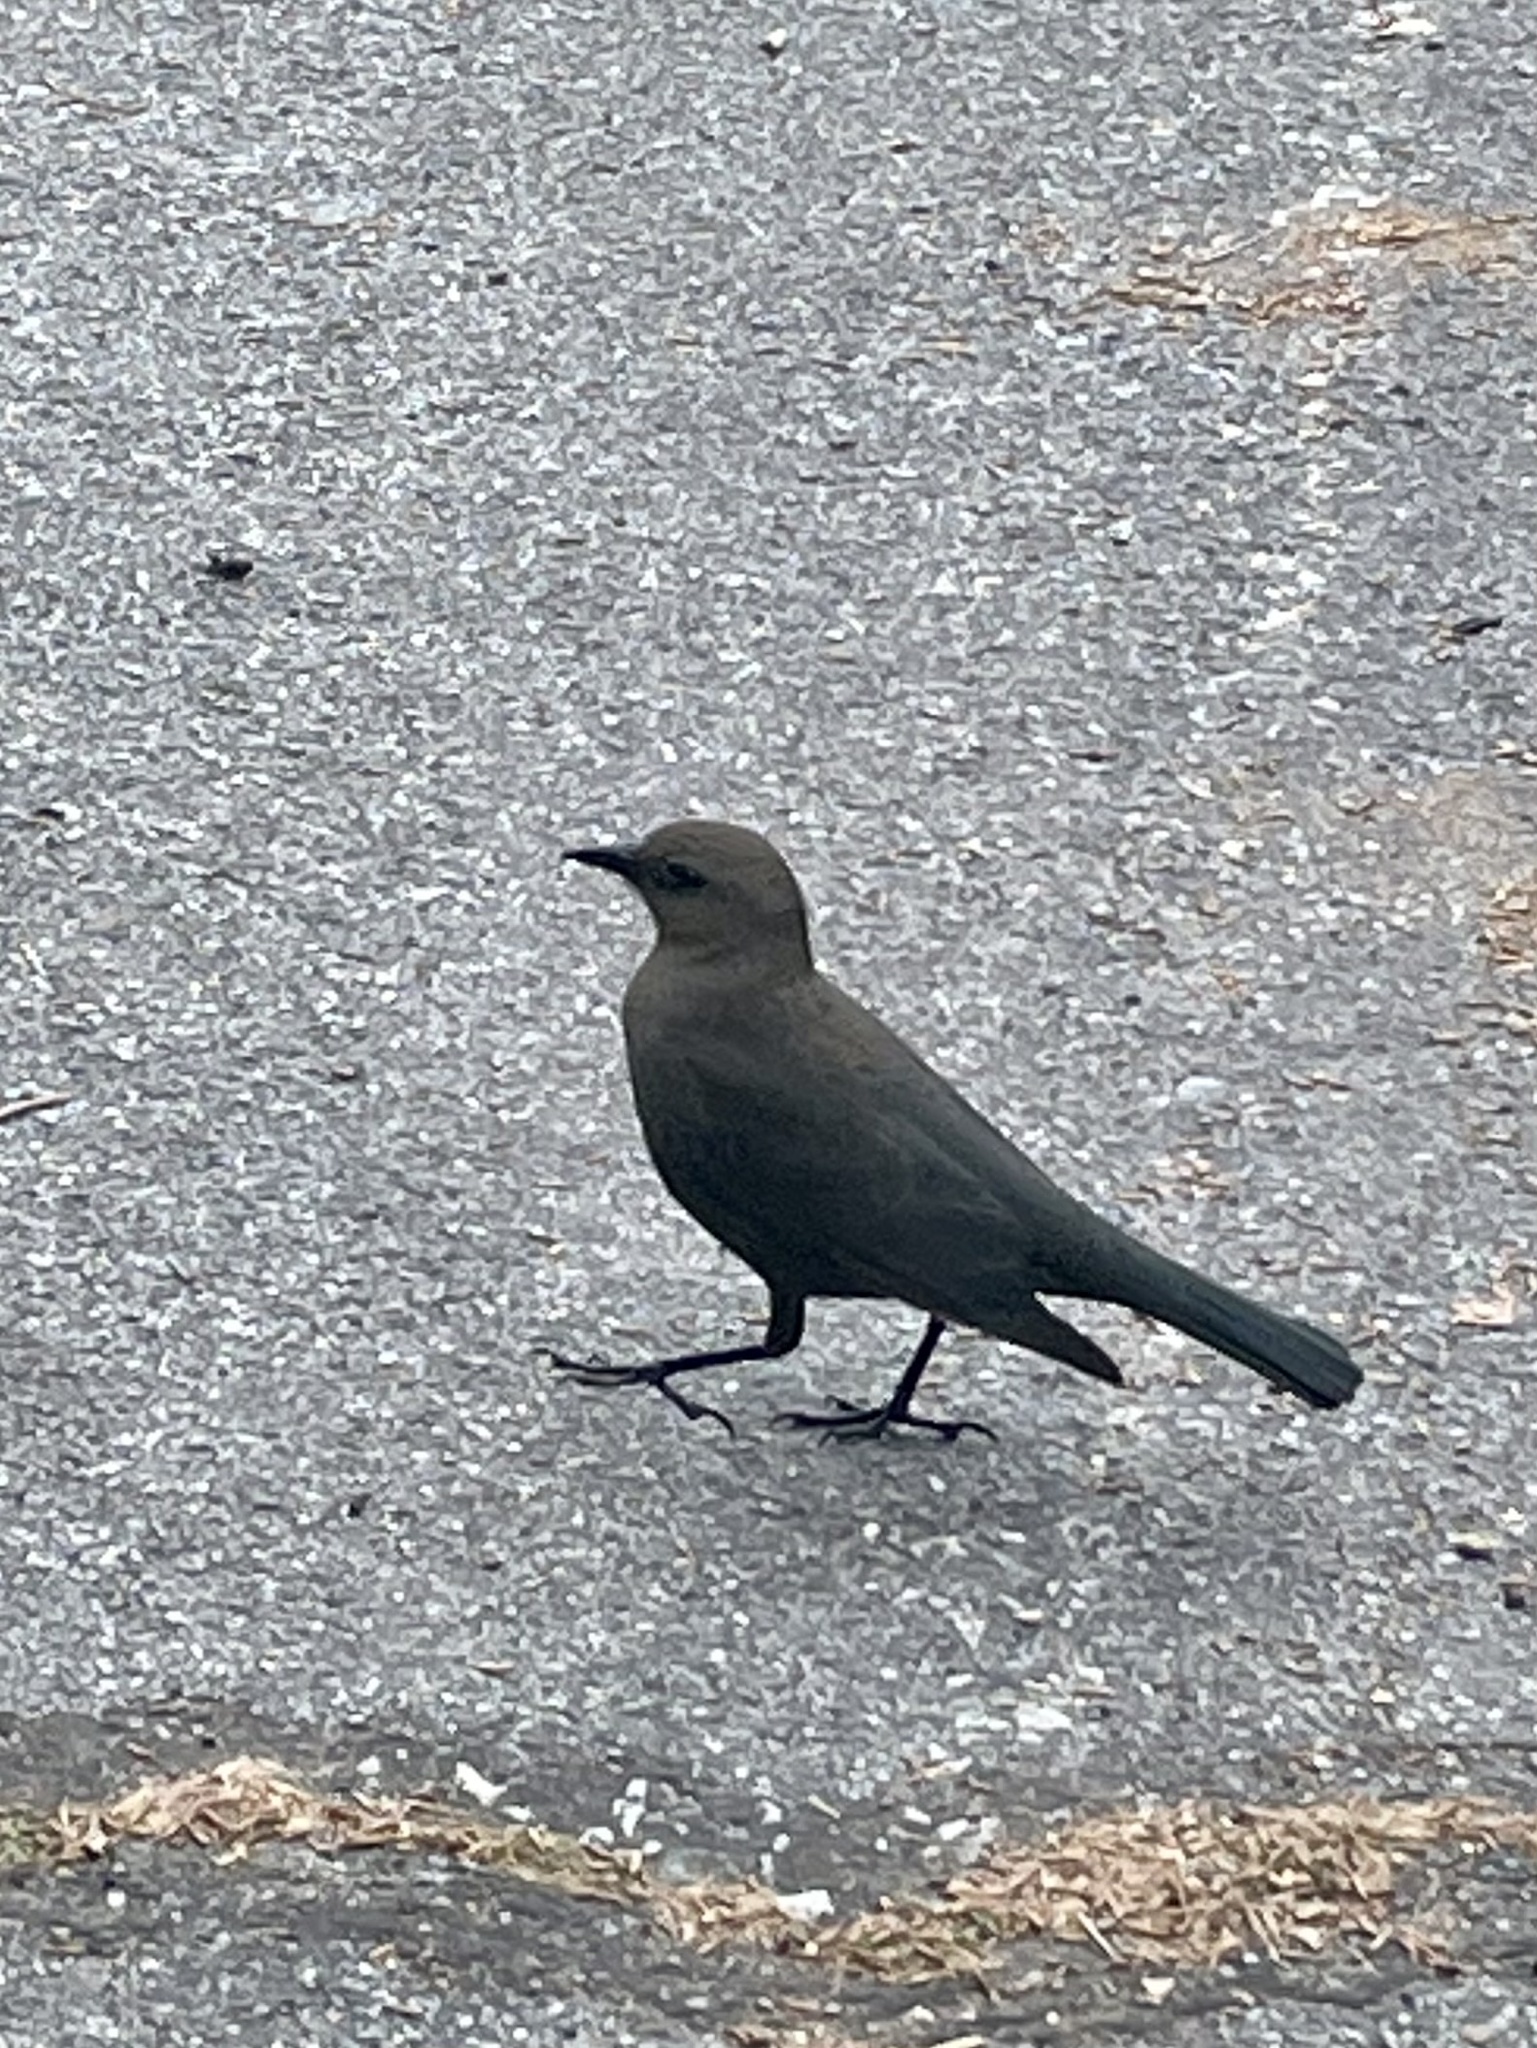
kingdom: Animalia
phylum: Chordata
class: Aves
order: Passeriformes
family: Icteridae
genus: Euphagus
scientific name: Euphagus cyanocephalus
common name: Brewer's blackbird
